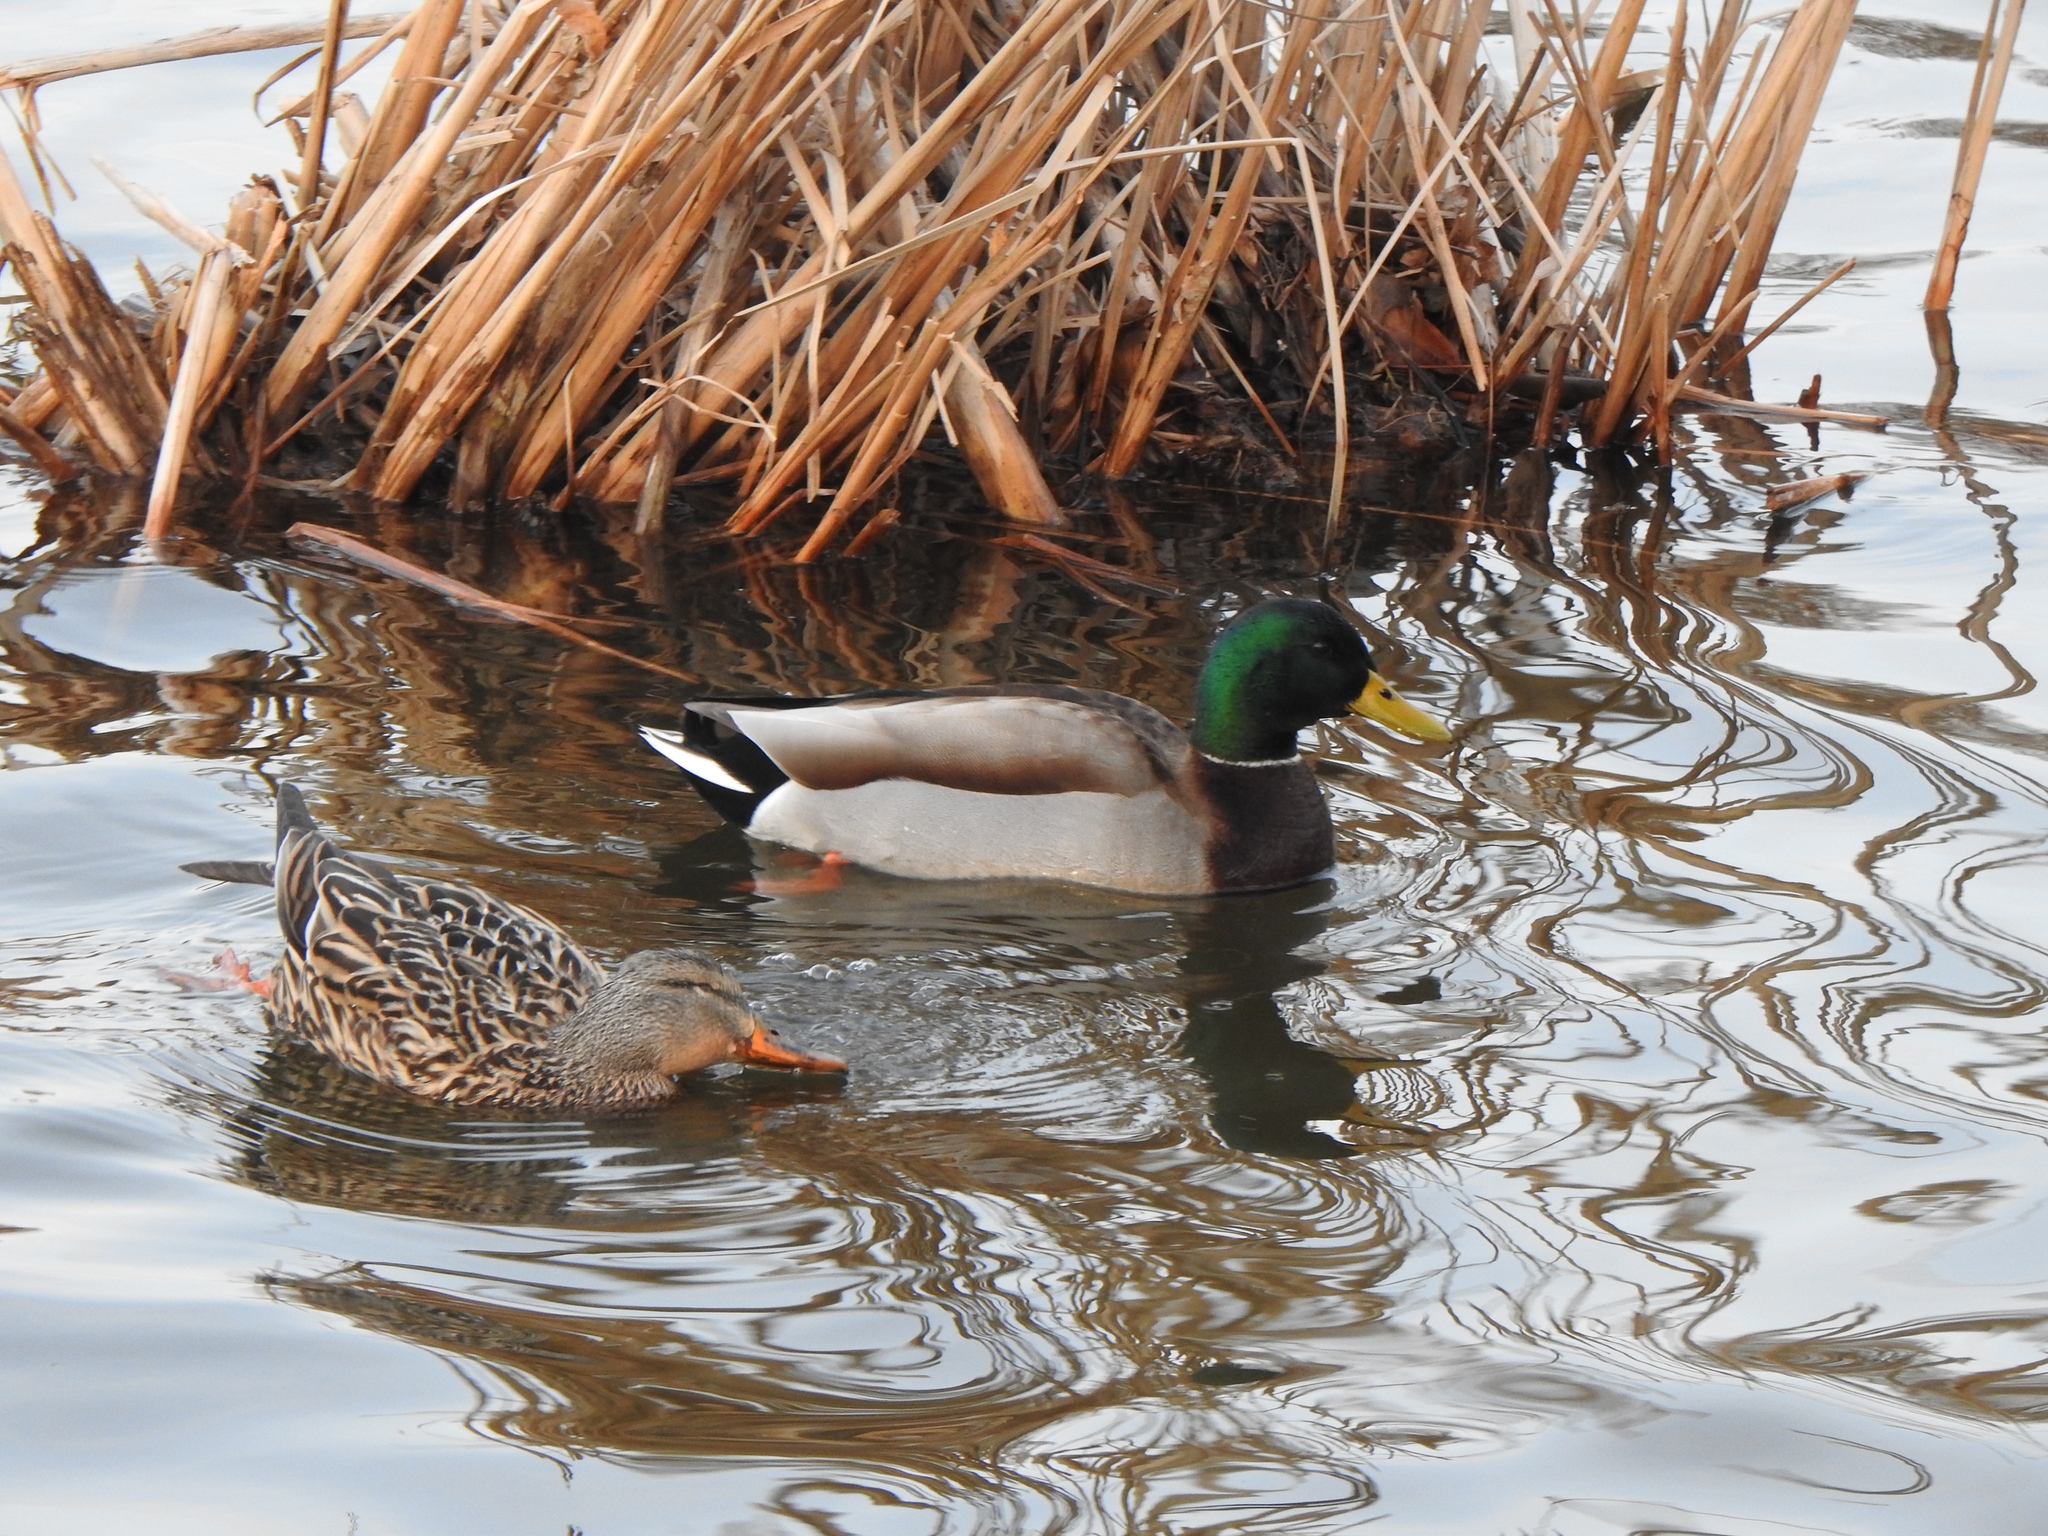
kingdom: Animalia
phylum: Chordata
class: Aves
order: Anseriformes
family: Anatidae
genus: Anas
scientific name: Anas platyrhynchos
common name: Mallard
